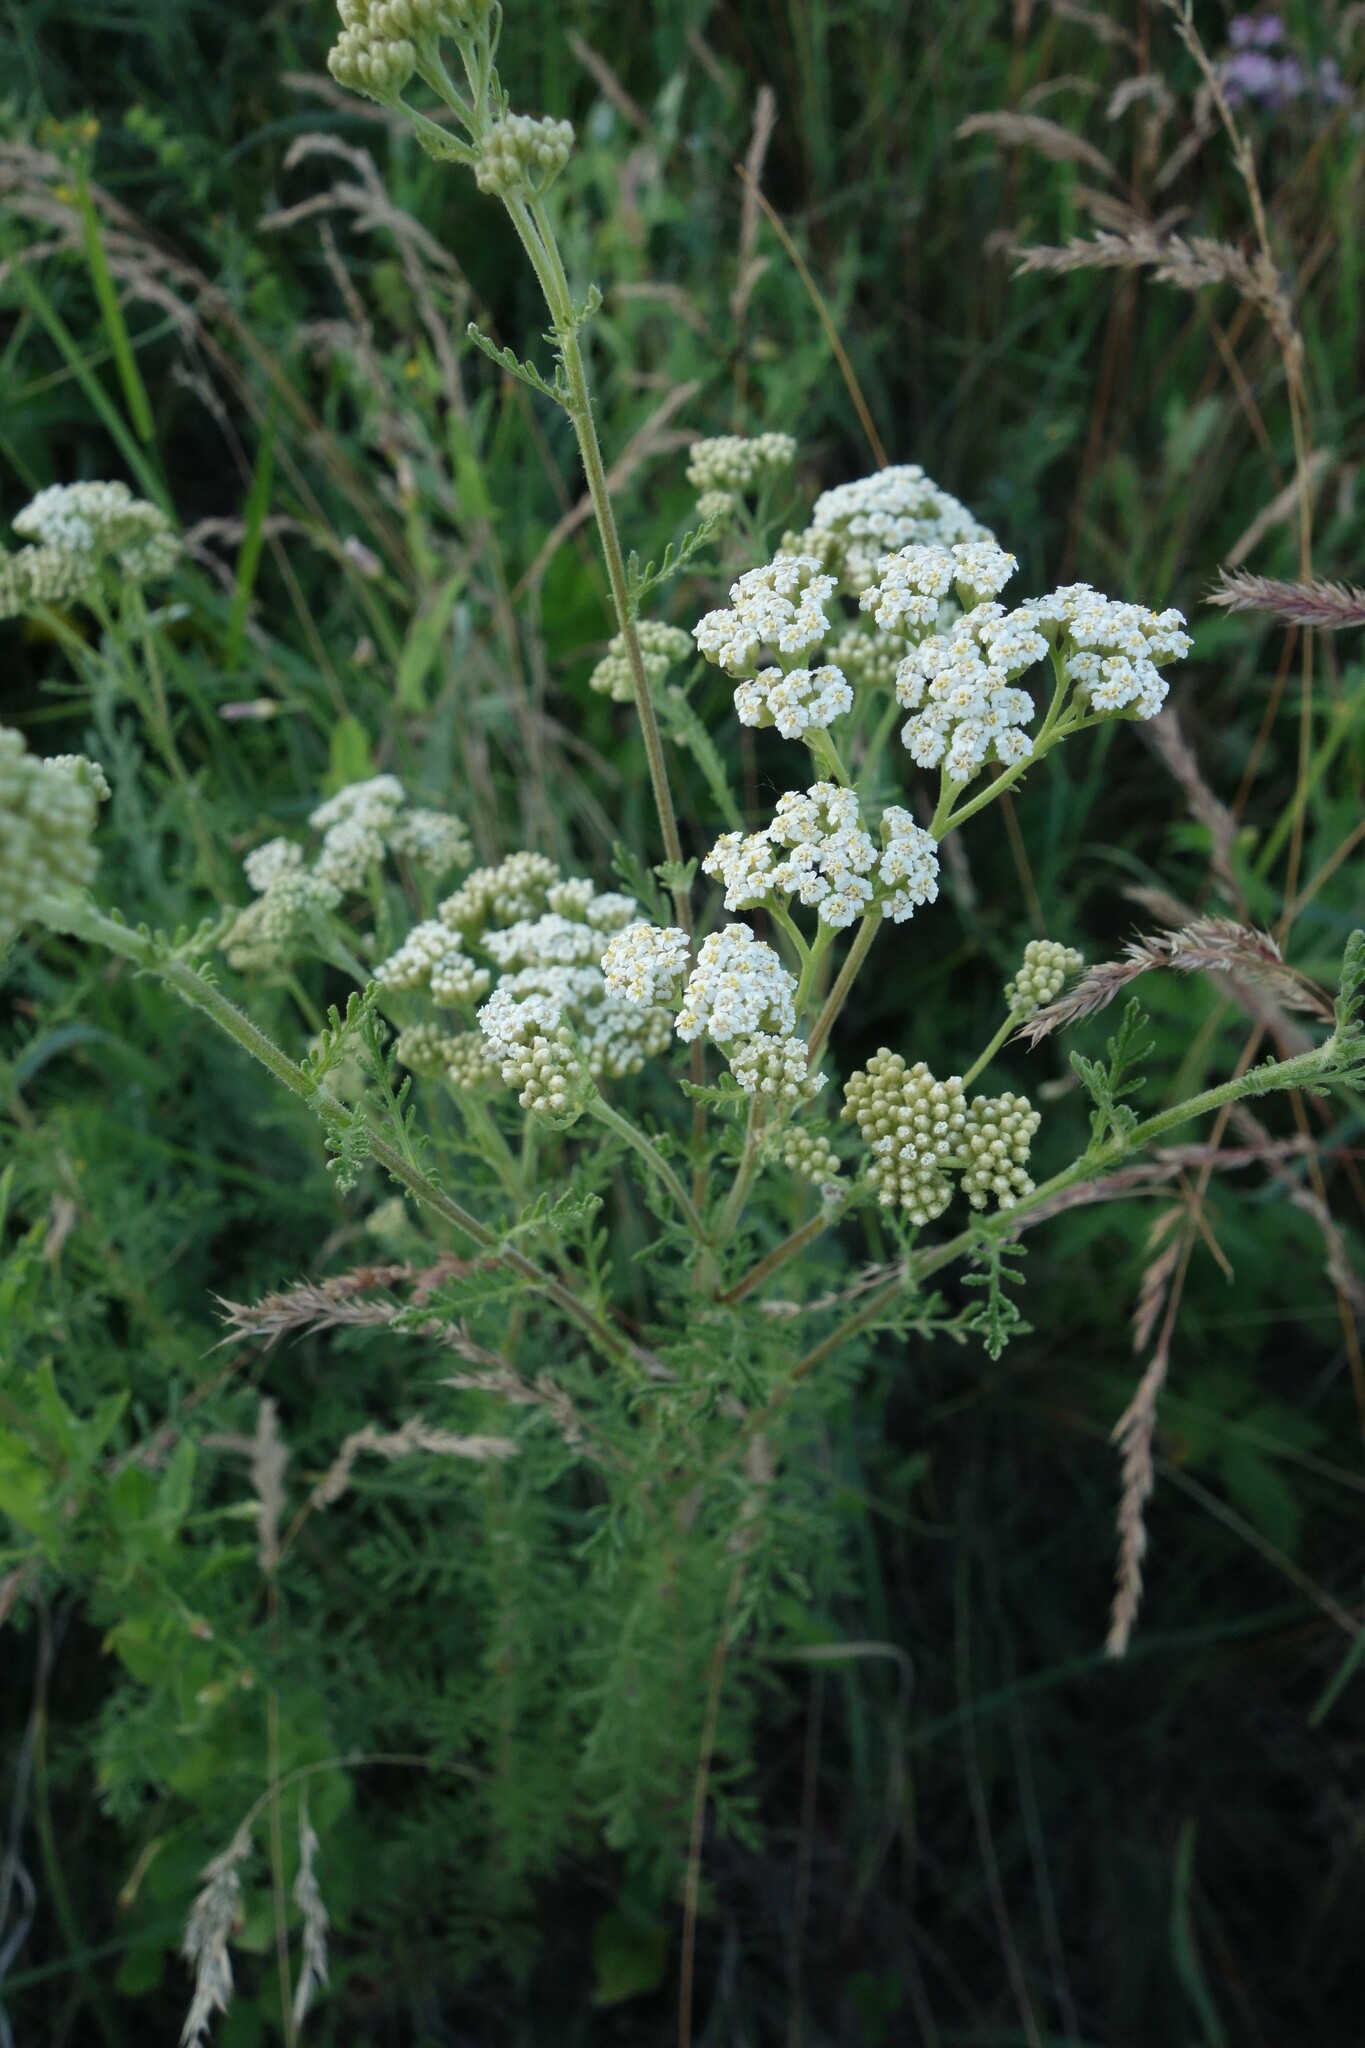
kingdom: Plantae
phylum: Tracheophyta
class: Magnoliopsida
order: Asterales
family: Asteraceae
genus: Achillea
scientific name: Achillea nobilis
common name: Noble yarrow
